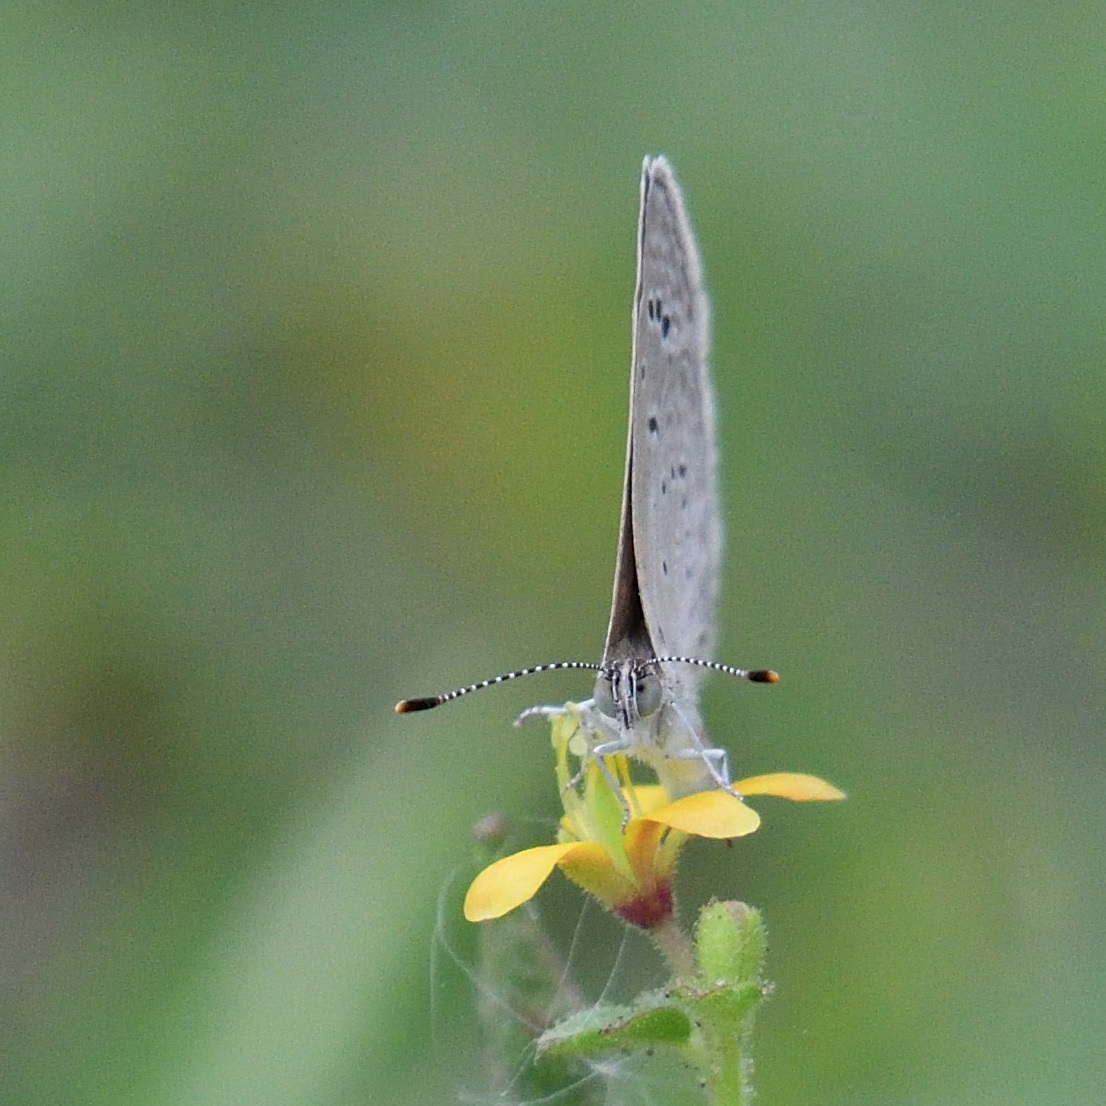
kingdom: Animalia
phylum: Arthropoda
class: Insecta
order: Lepidoptera
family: Lycaenidae
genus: Zizeeria
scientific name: Zizeeria karsandra
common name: Dark grass blue
